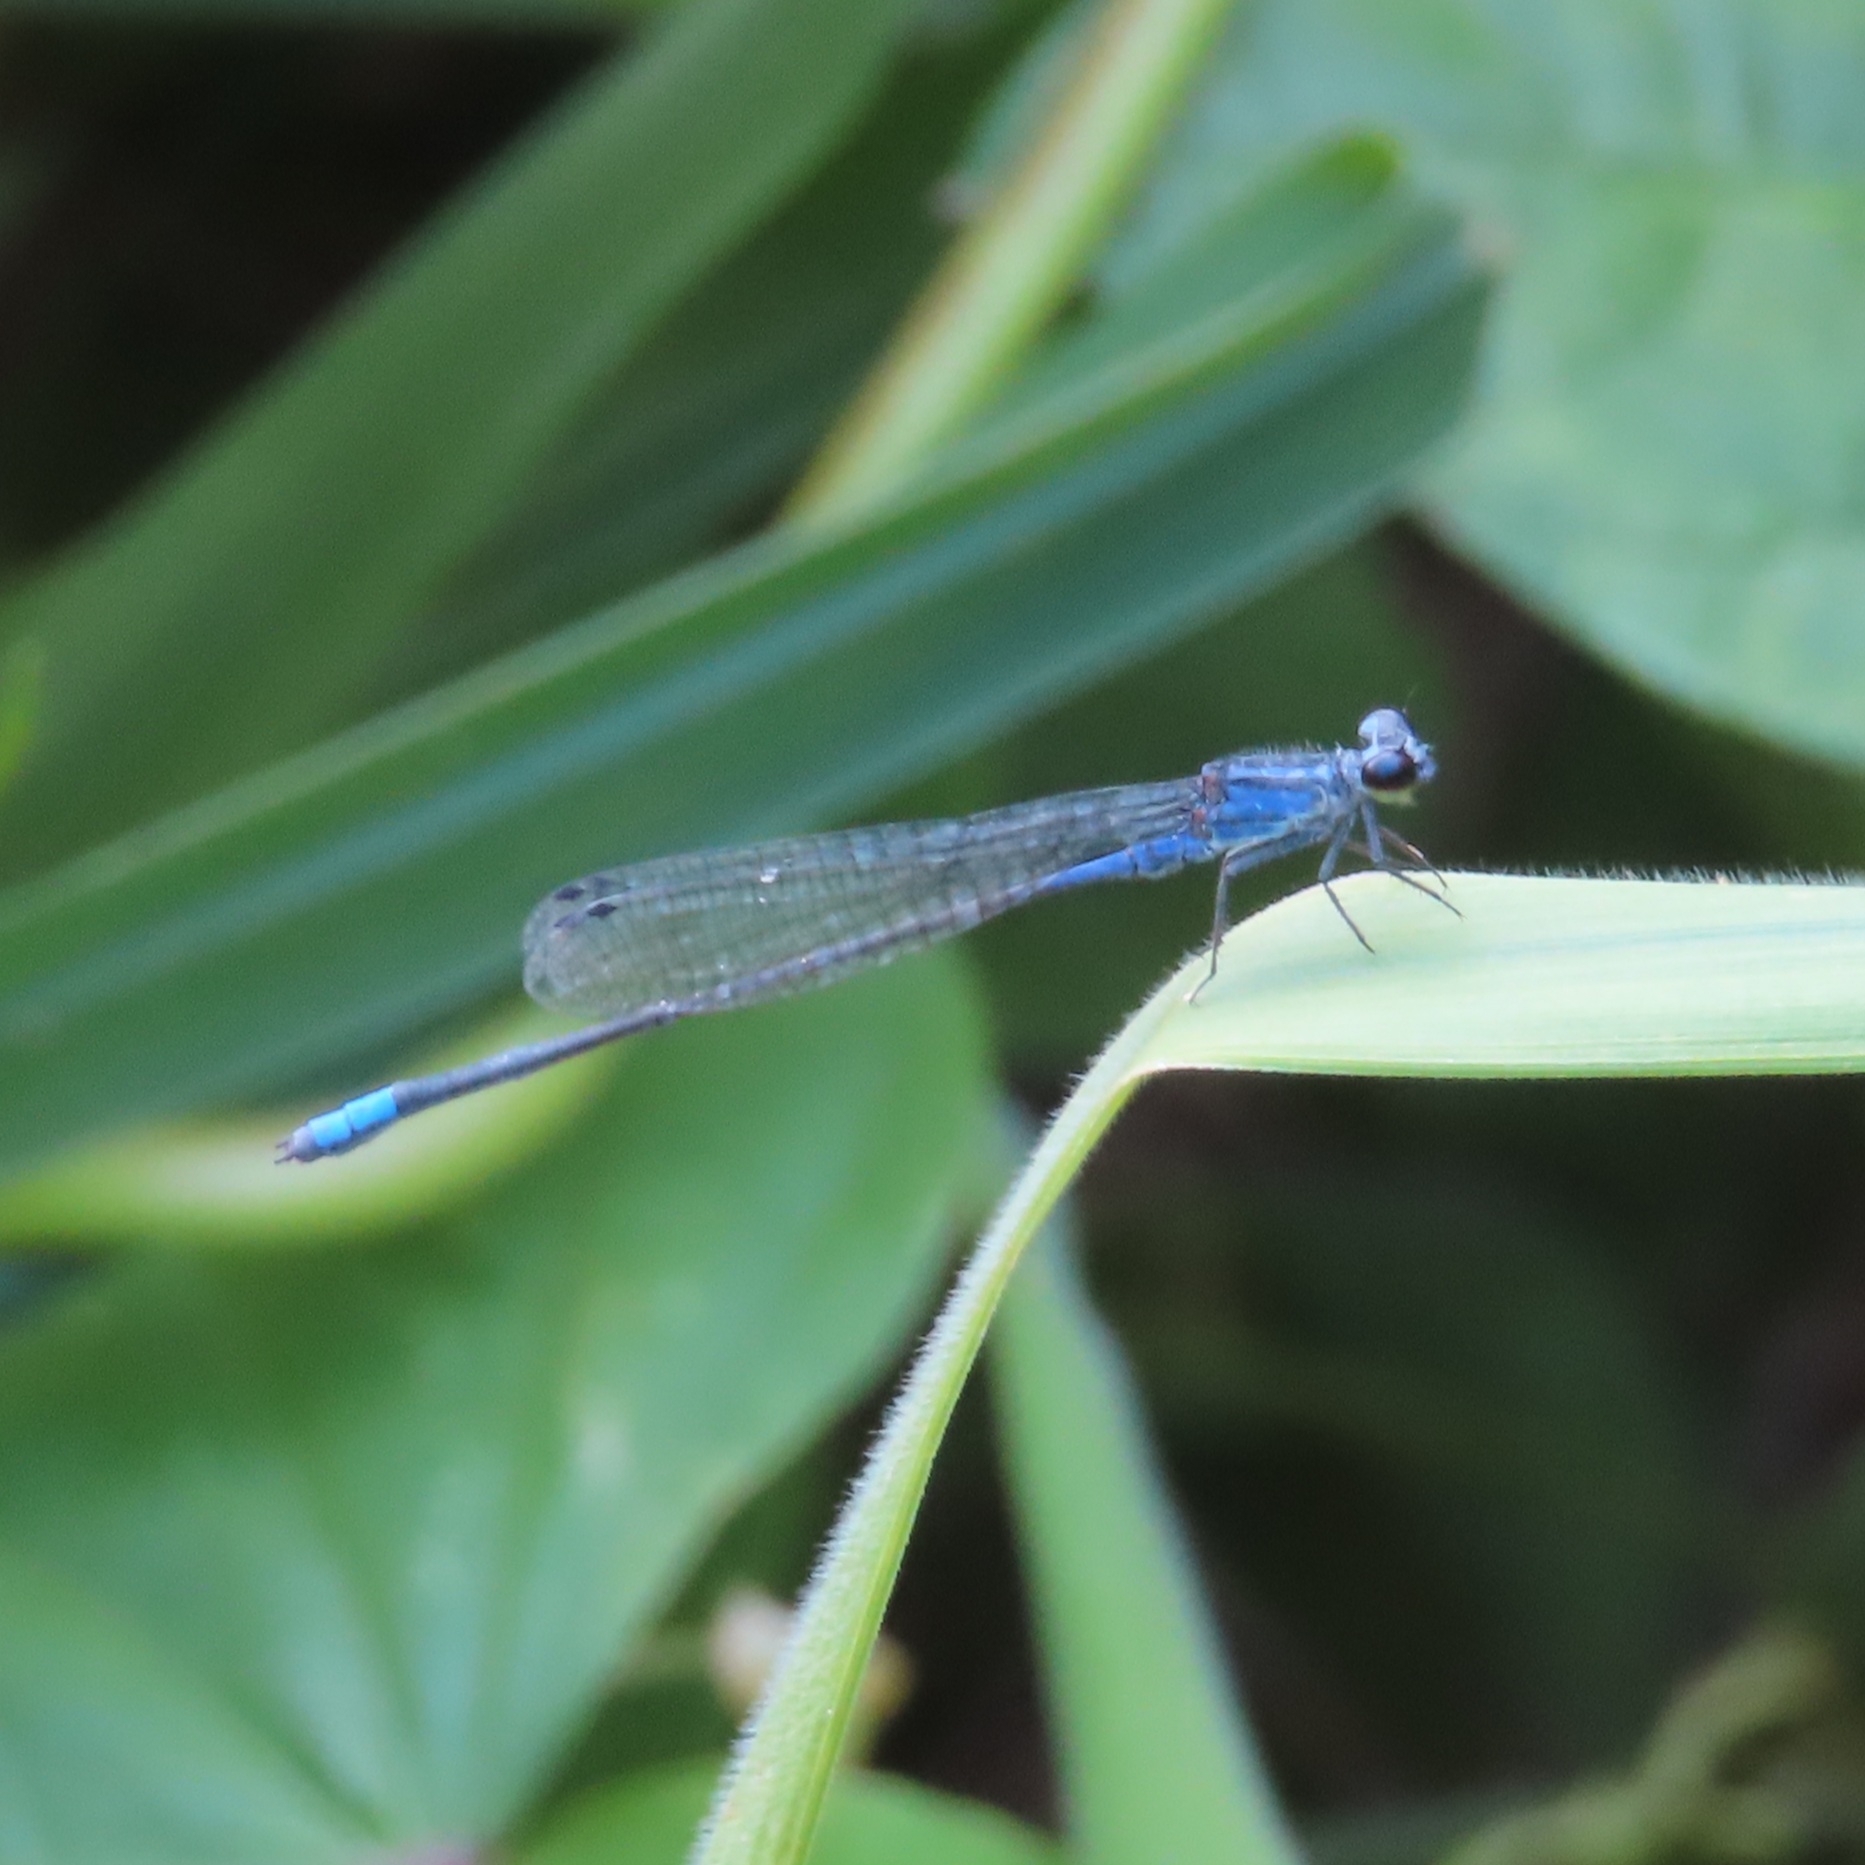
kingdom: Animalia
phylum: Arthropoda
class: Insecta
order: Odonata
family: Coenagrionidae
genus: Enallagma
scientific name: Enallagma coecum
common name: Antillean bluet
